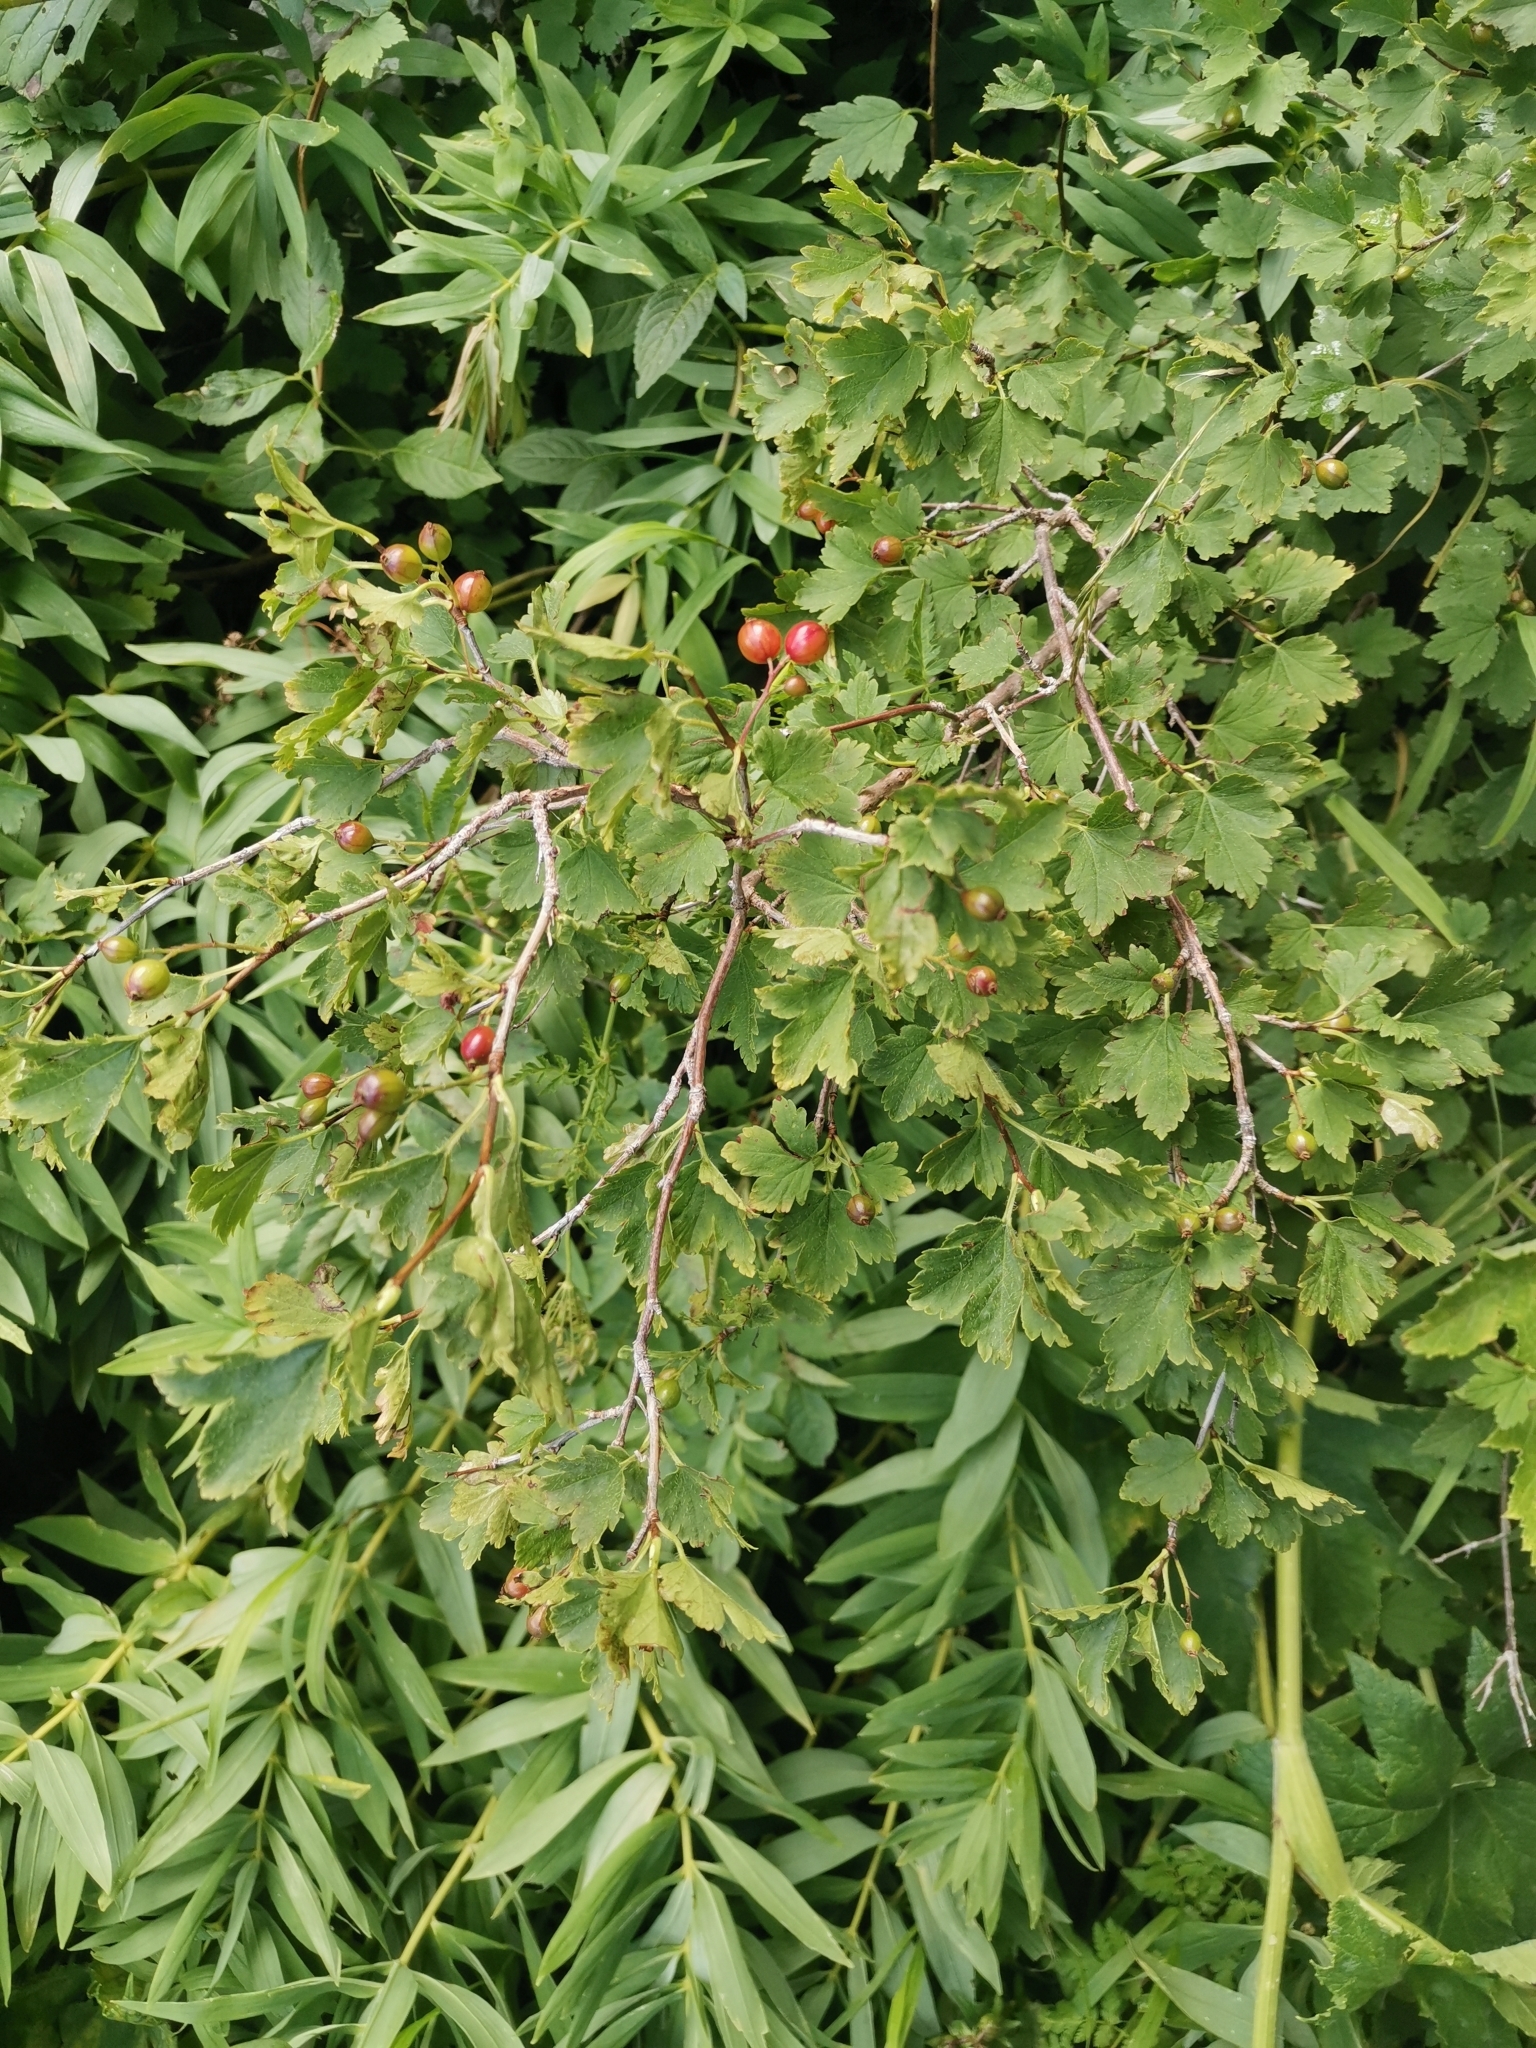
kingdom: Plantae
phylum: Tracheophyta
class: Magnoliopsida
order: Saxifragales
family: Grossulariaceae
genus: Ribes
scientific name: Ribes alpinum
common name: Alpine currant
